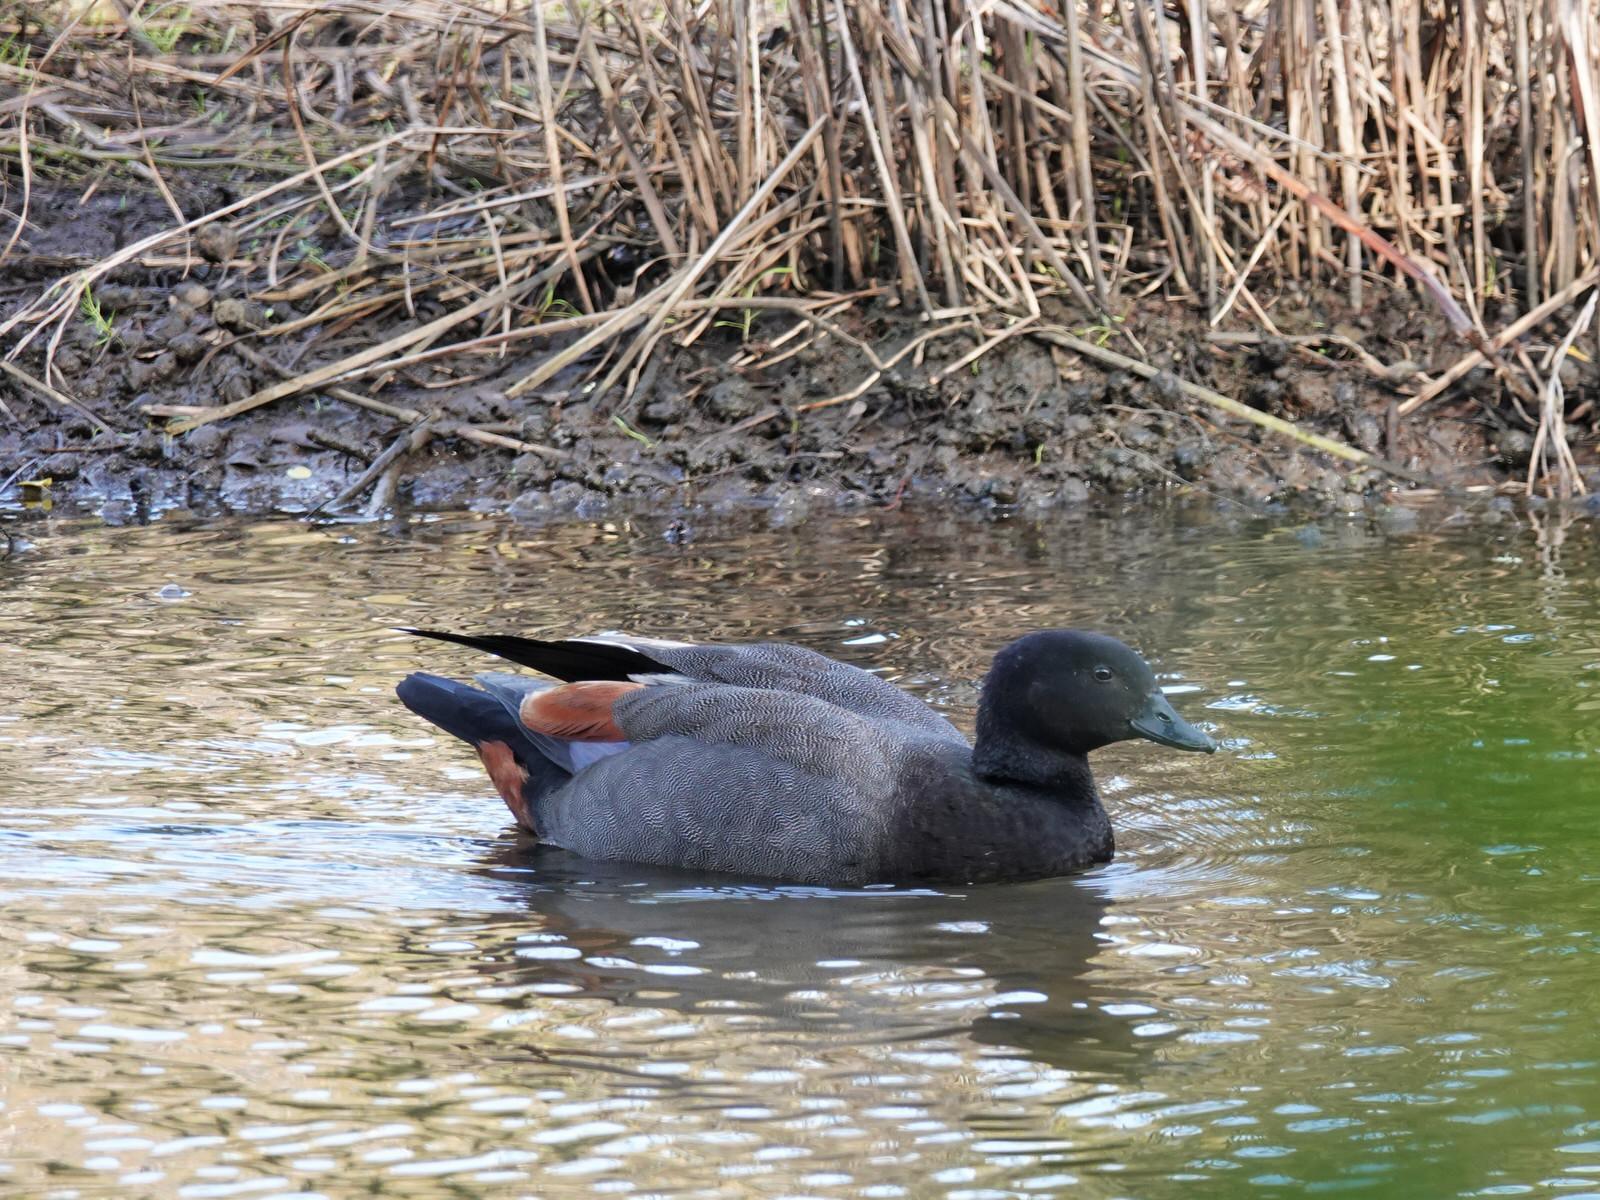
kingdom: Animalia
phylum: Chordata
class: Aves
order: Anseriformes
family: Anatidae
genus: Tadorna
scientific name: Tadorna variegata
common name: Paradise shelduck
